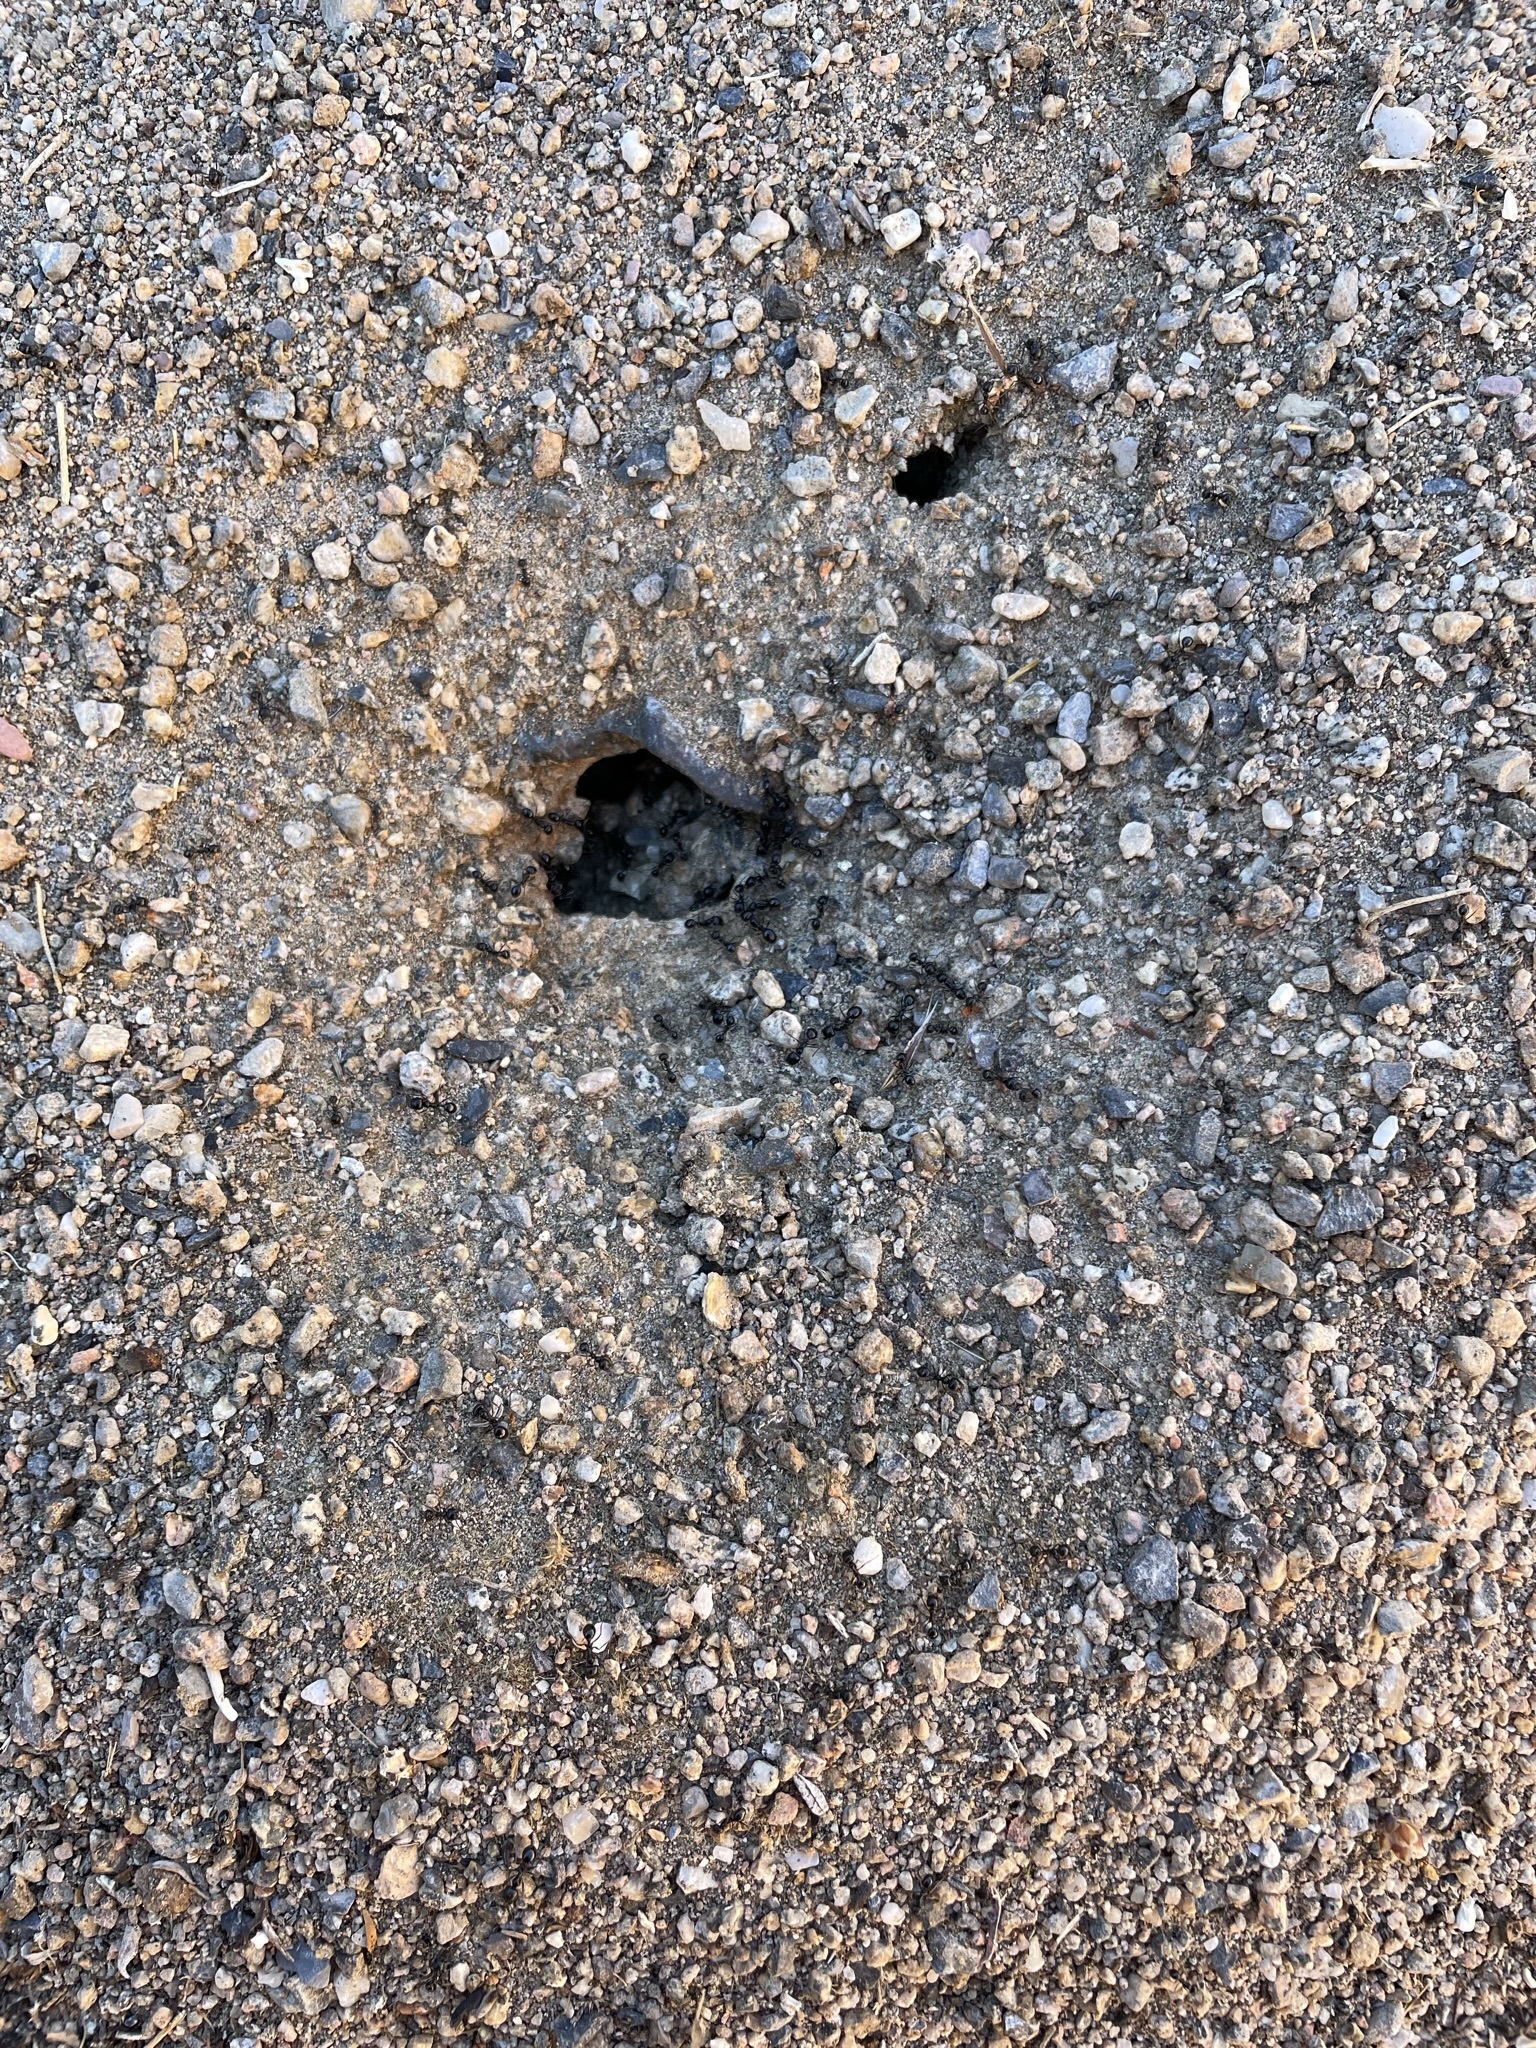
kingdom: Animalia
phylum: Arthropoda
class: Insecta
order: Hymenoptera
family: Formicidae
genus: Messor
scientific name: Messor pergandei
